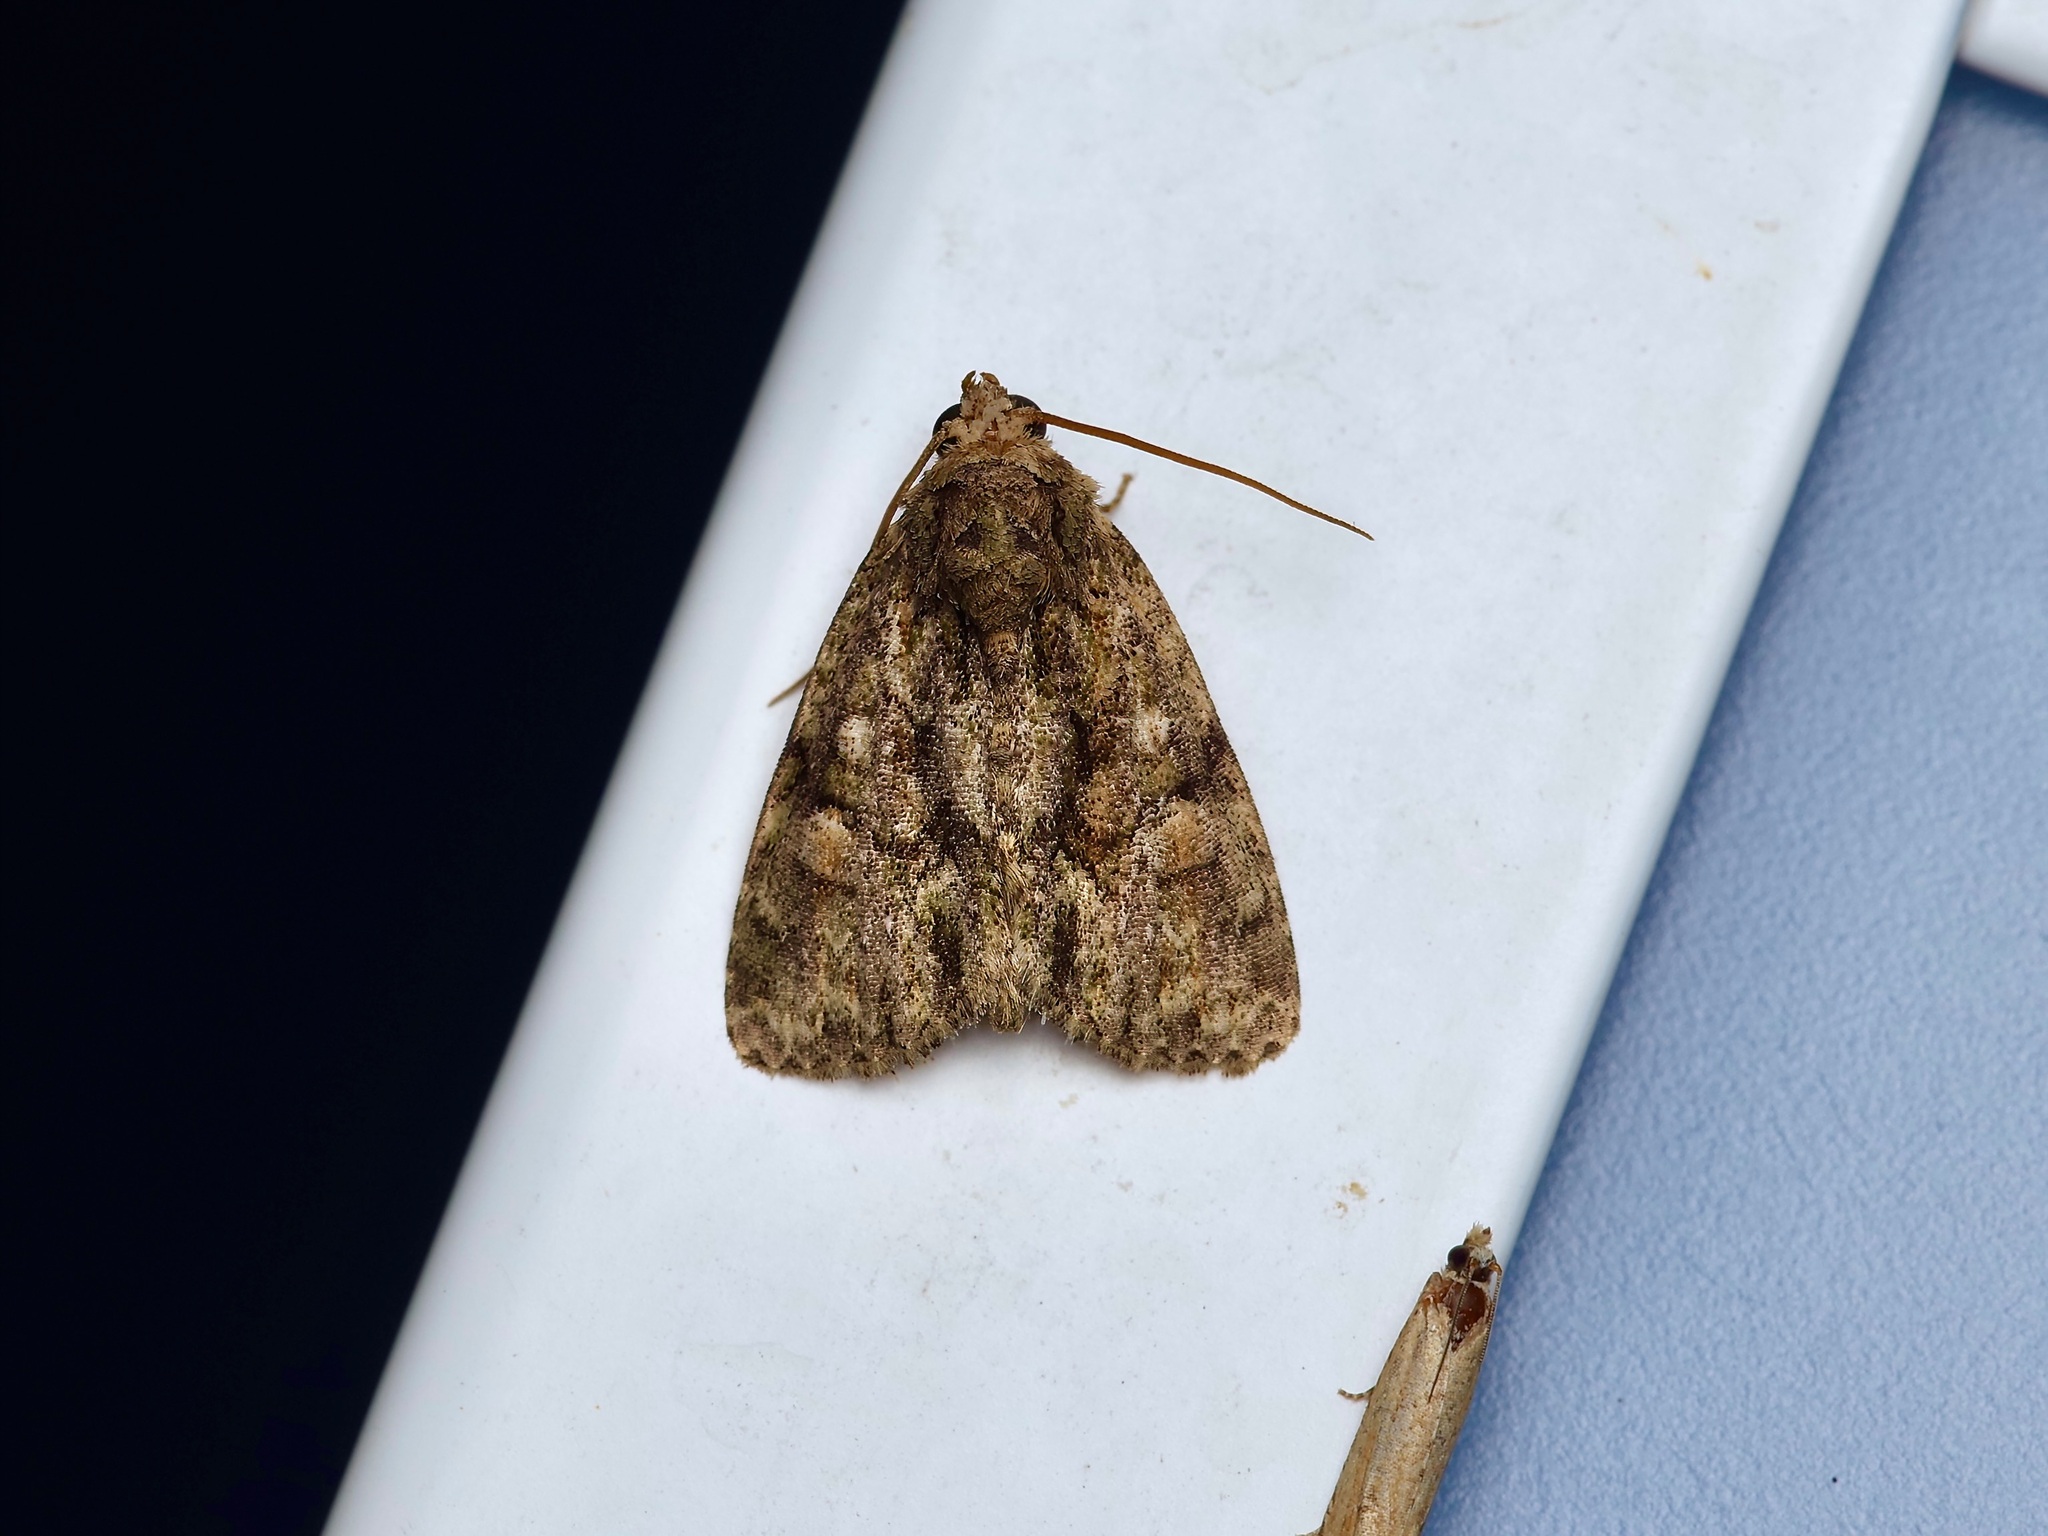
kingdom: Animalia
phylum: Arthropoda
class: Insecta
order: Lepidoptera
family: Noctuidae
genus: Phosphila
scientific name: Phosphila miselioides
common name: Spotted phosphila moth
